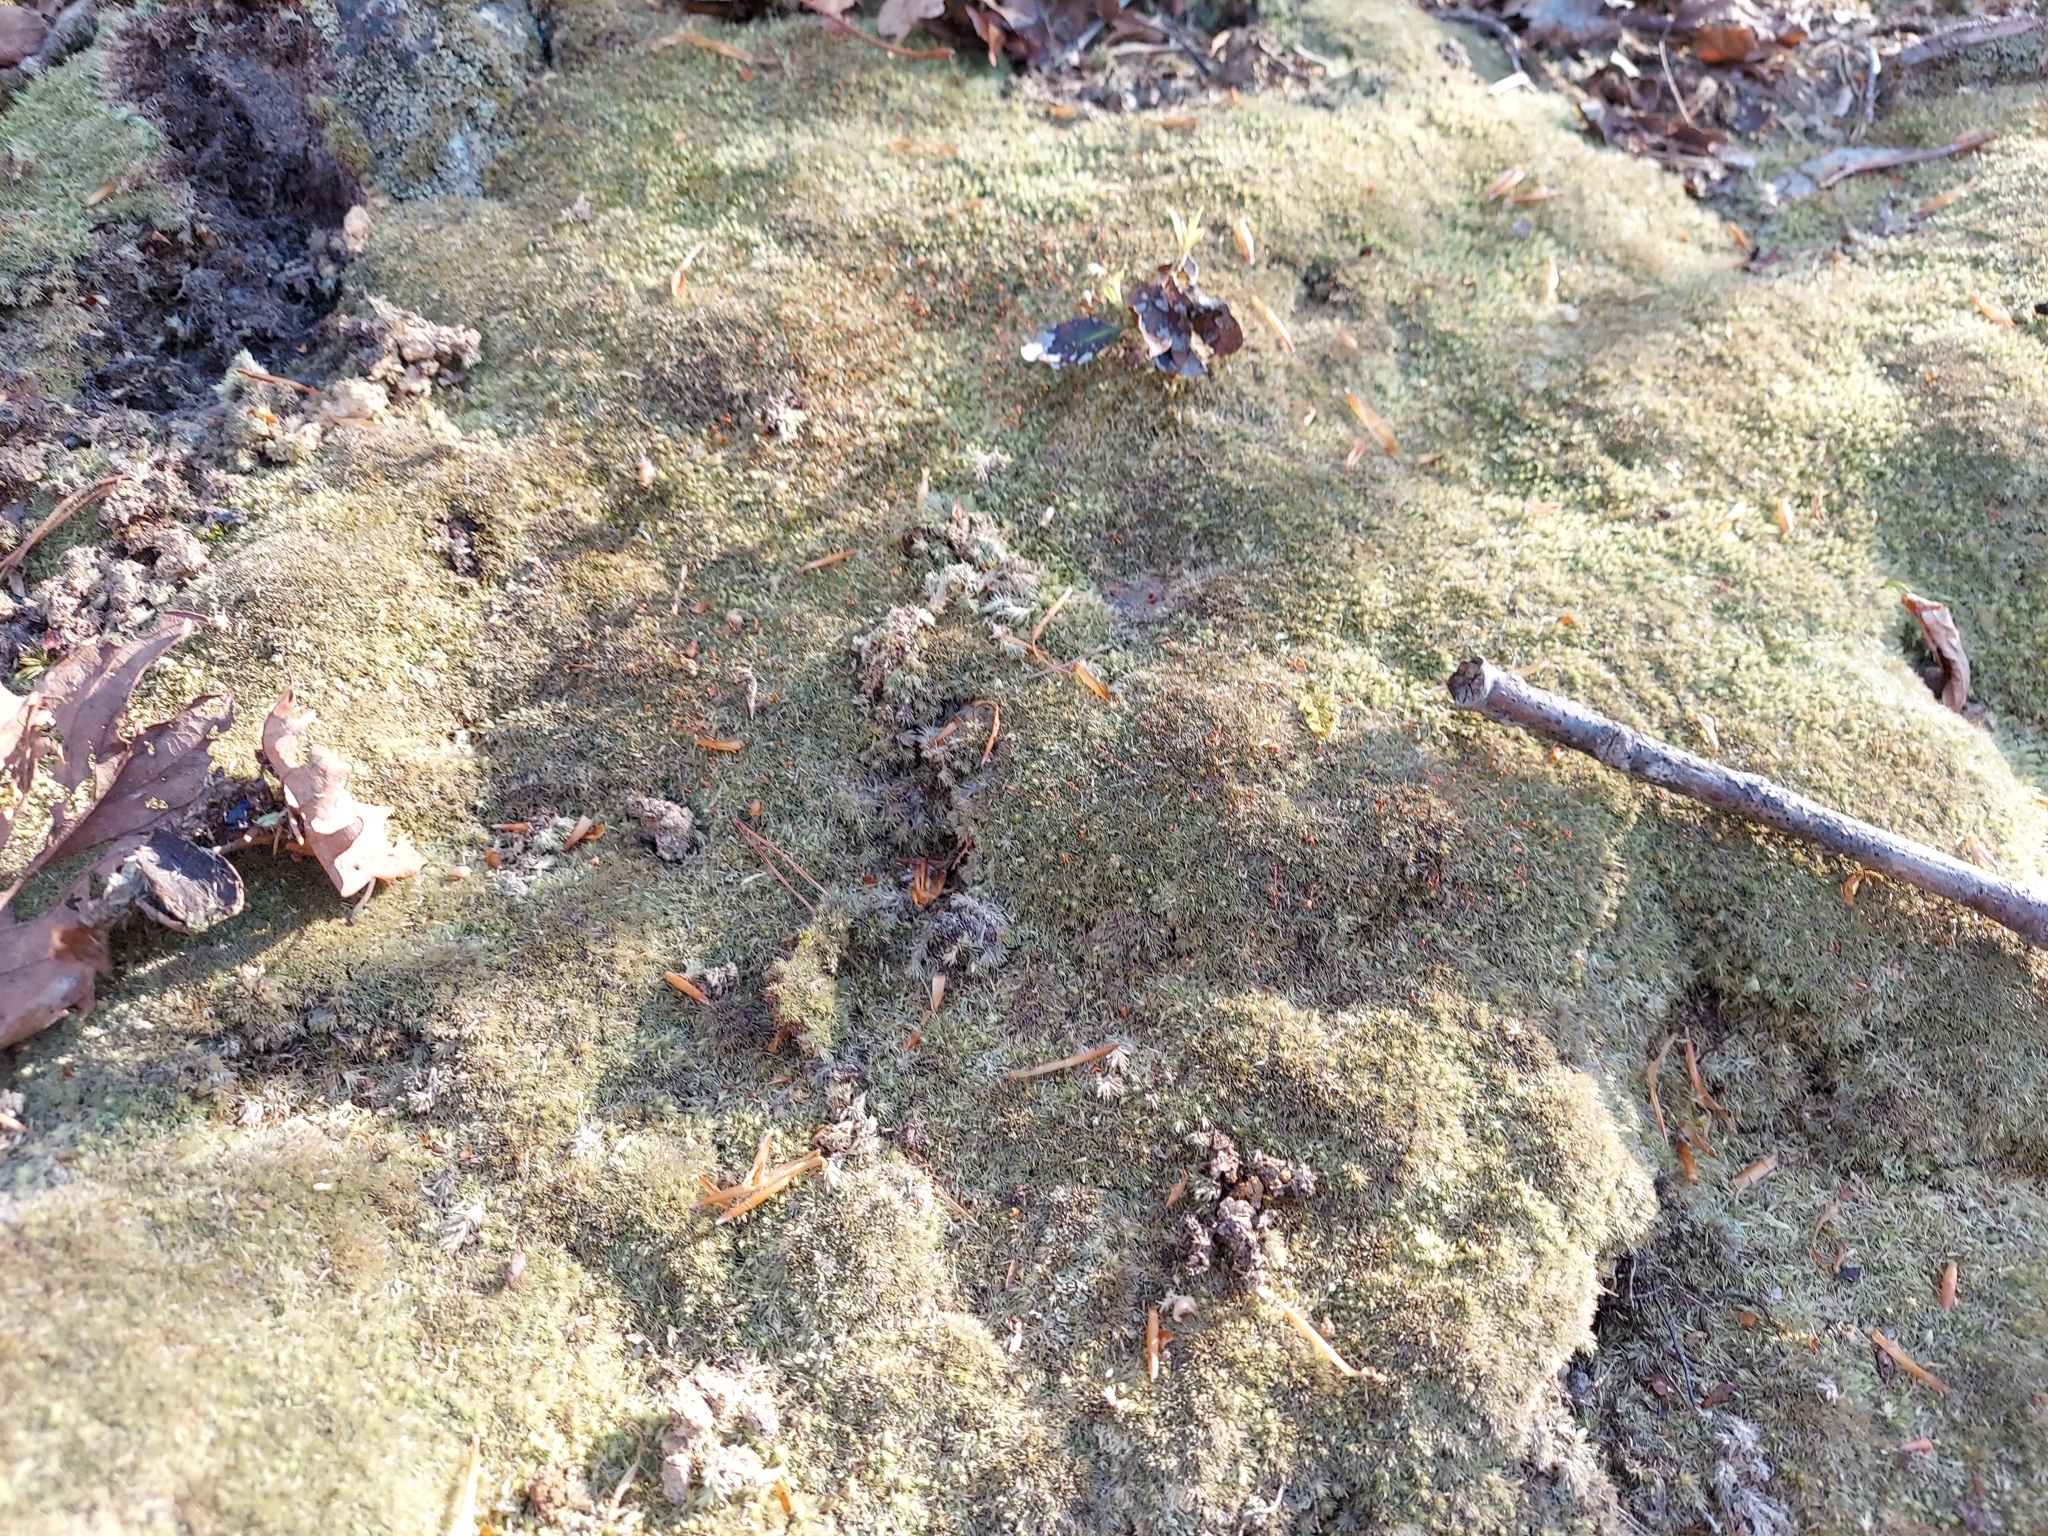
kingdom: Plantae
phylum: Bryophyta
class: Bryopsida
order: Dicranales
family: Leucobryaceae
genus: Leucobryum
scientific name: Leucobryum glaucum
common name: Large white-moss
